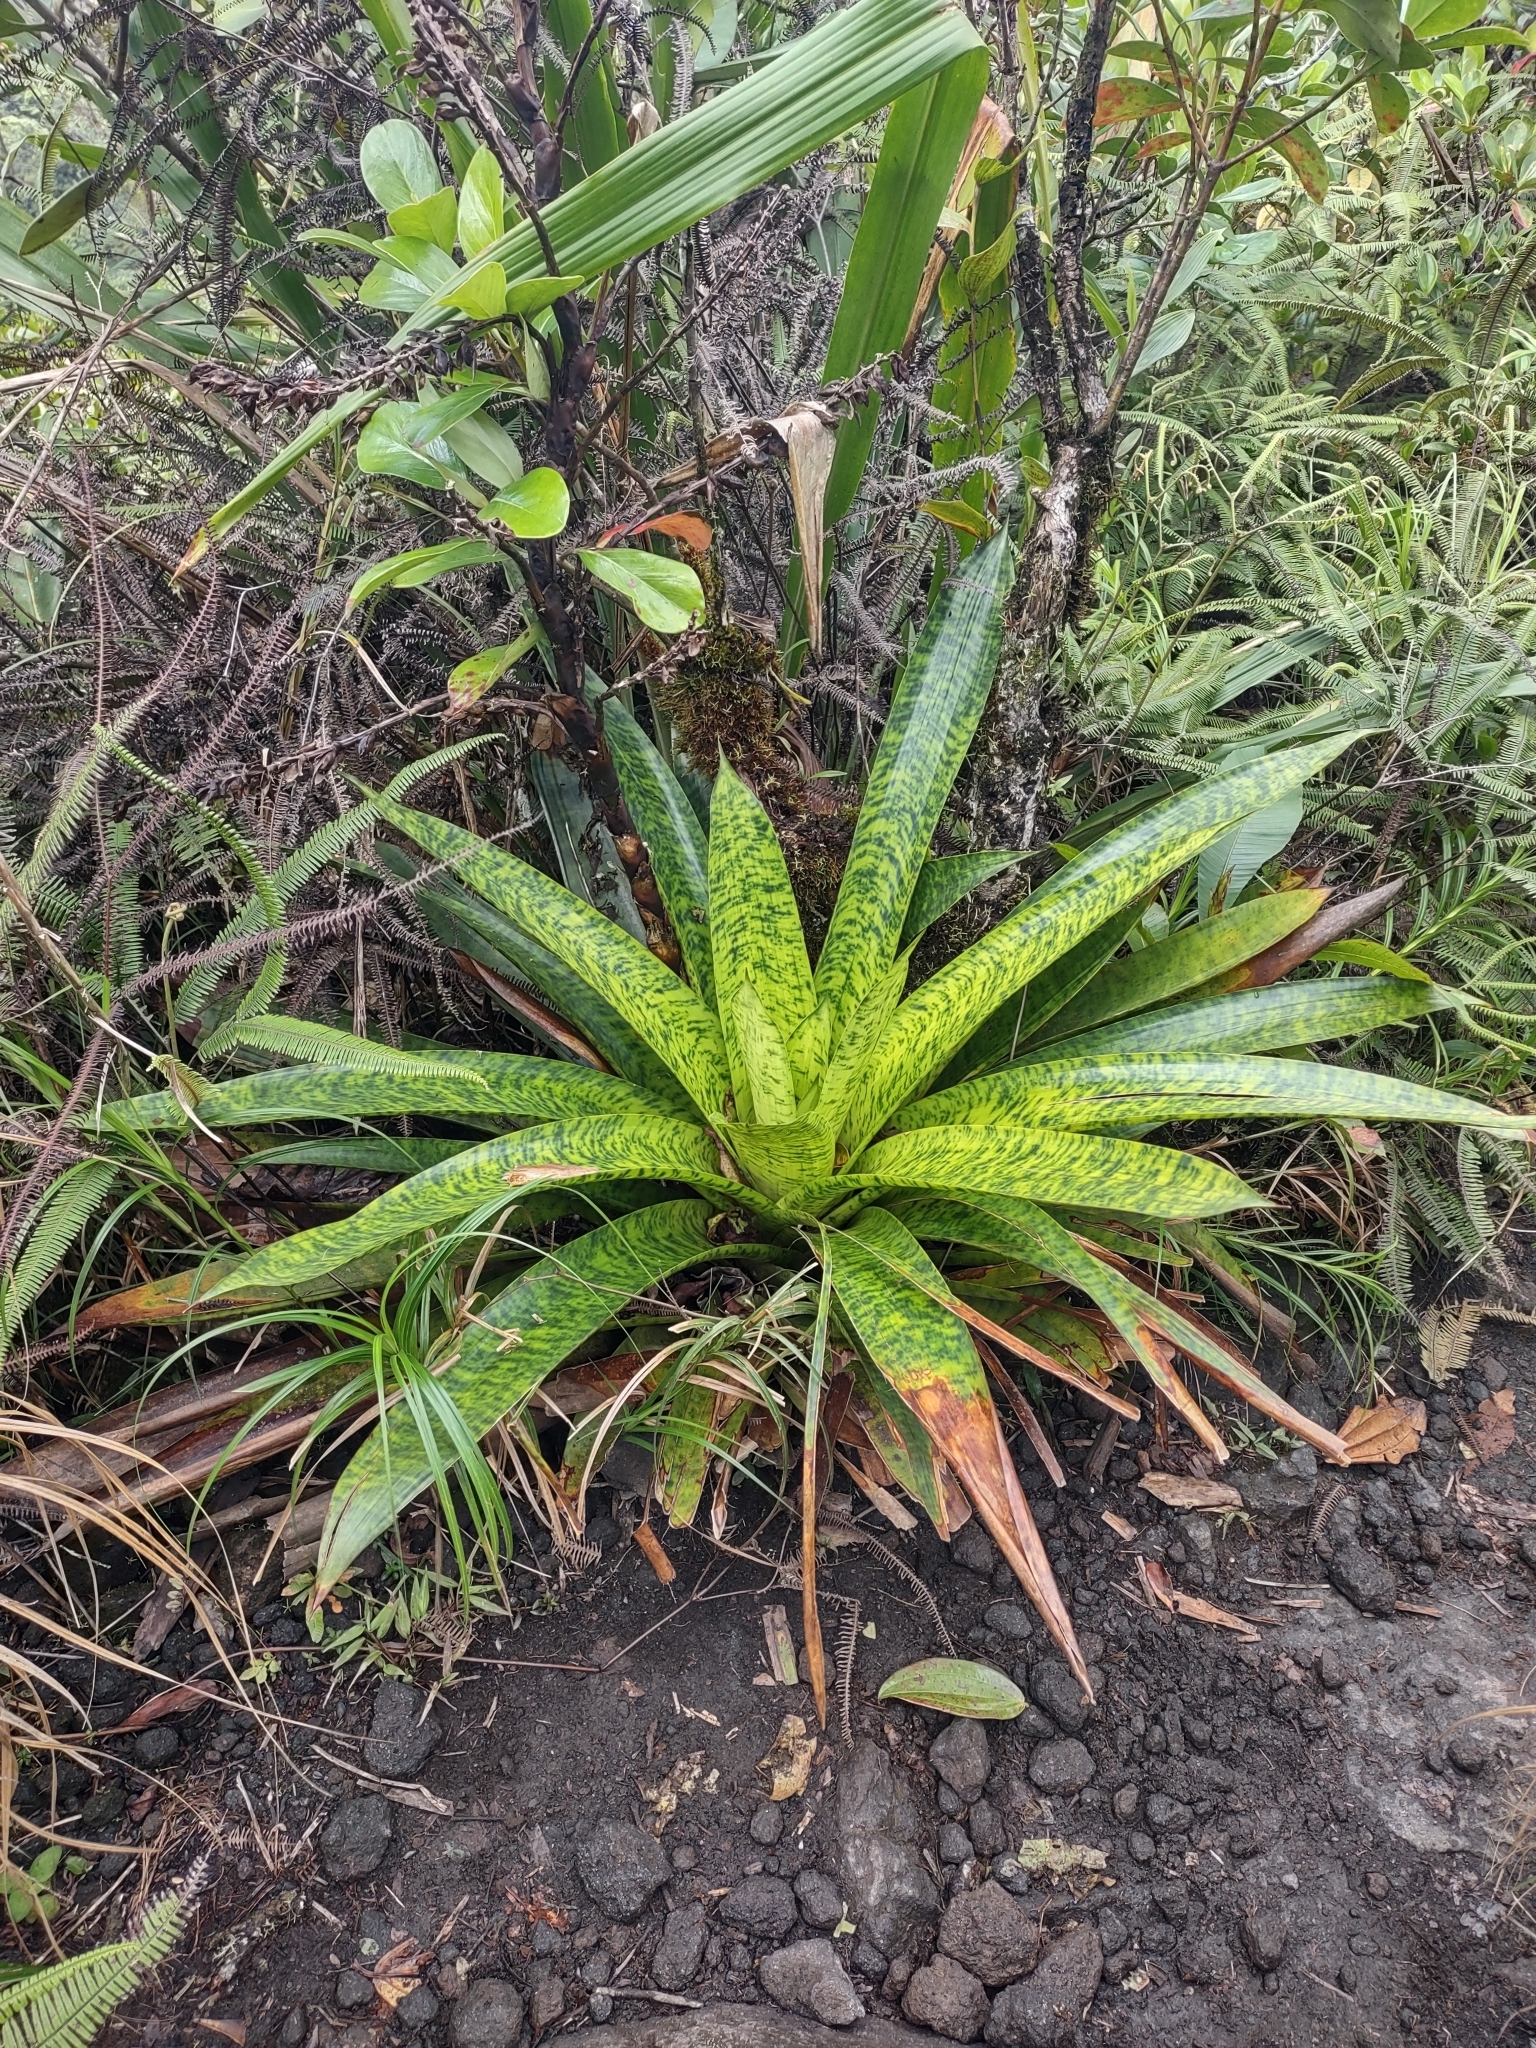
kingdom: Plantae
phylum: Tracheophyta
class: Liliopsida
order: Poales
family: Bromeliaceae
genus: Werauhia
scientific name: Werauhia kupperiana
